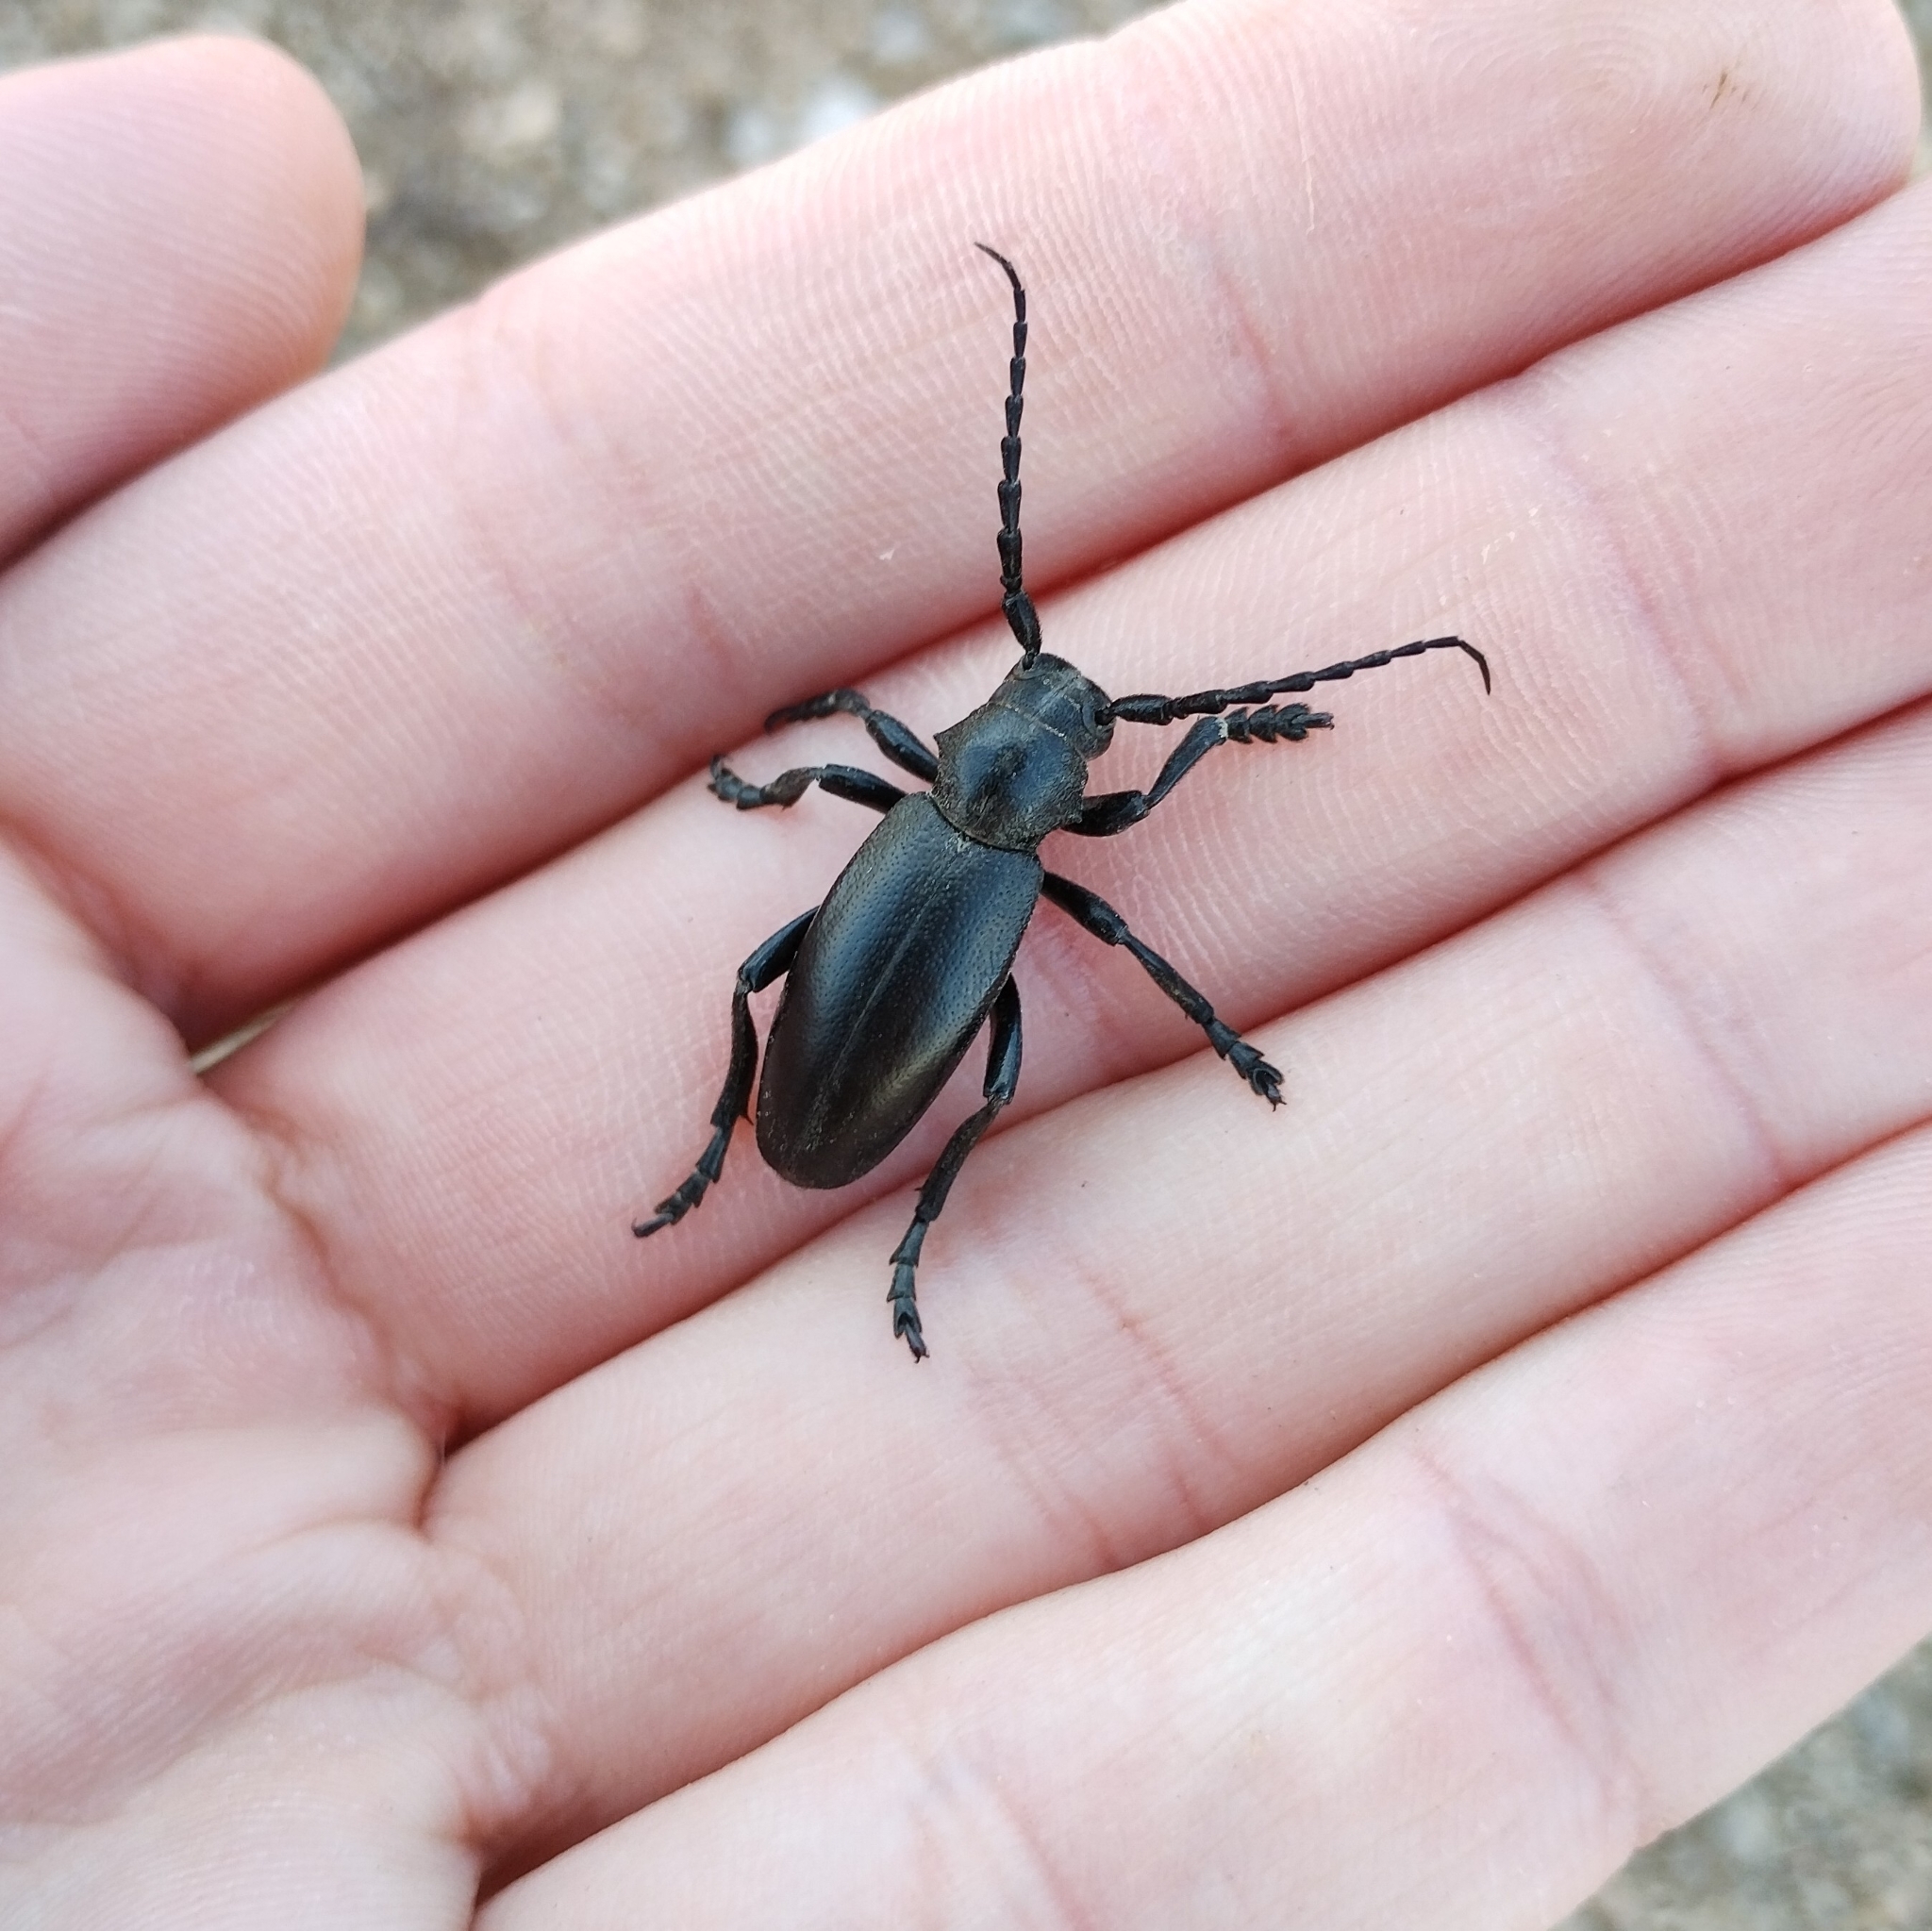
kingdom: Animalia
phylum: Arthropoda
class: Insecta
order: Coleoptera
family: Cerambycidae
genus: Dorcadion
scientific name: Dorcadion aethiops
